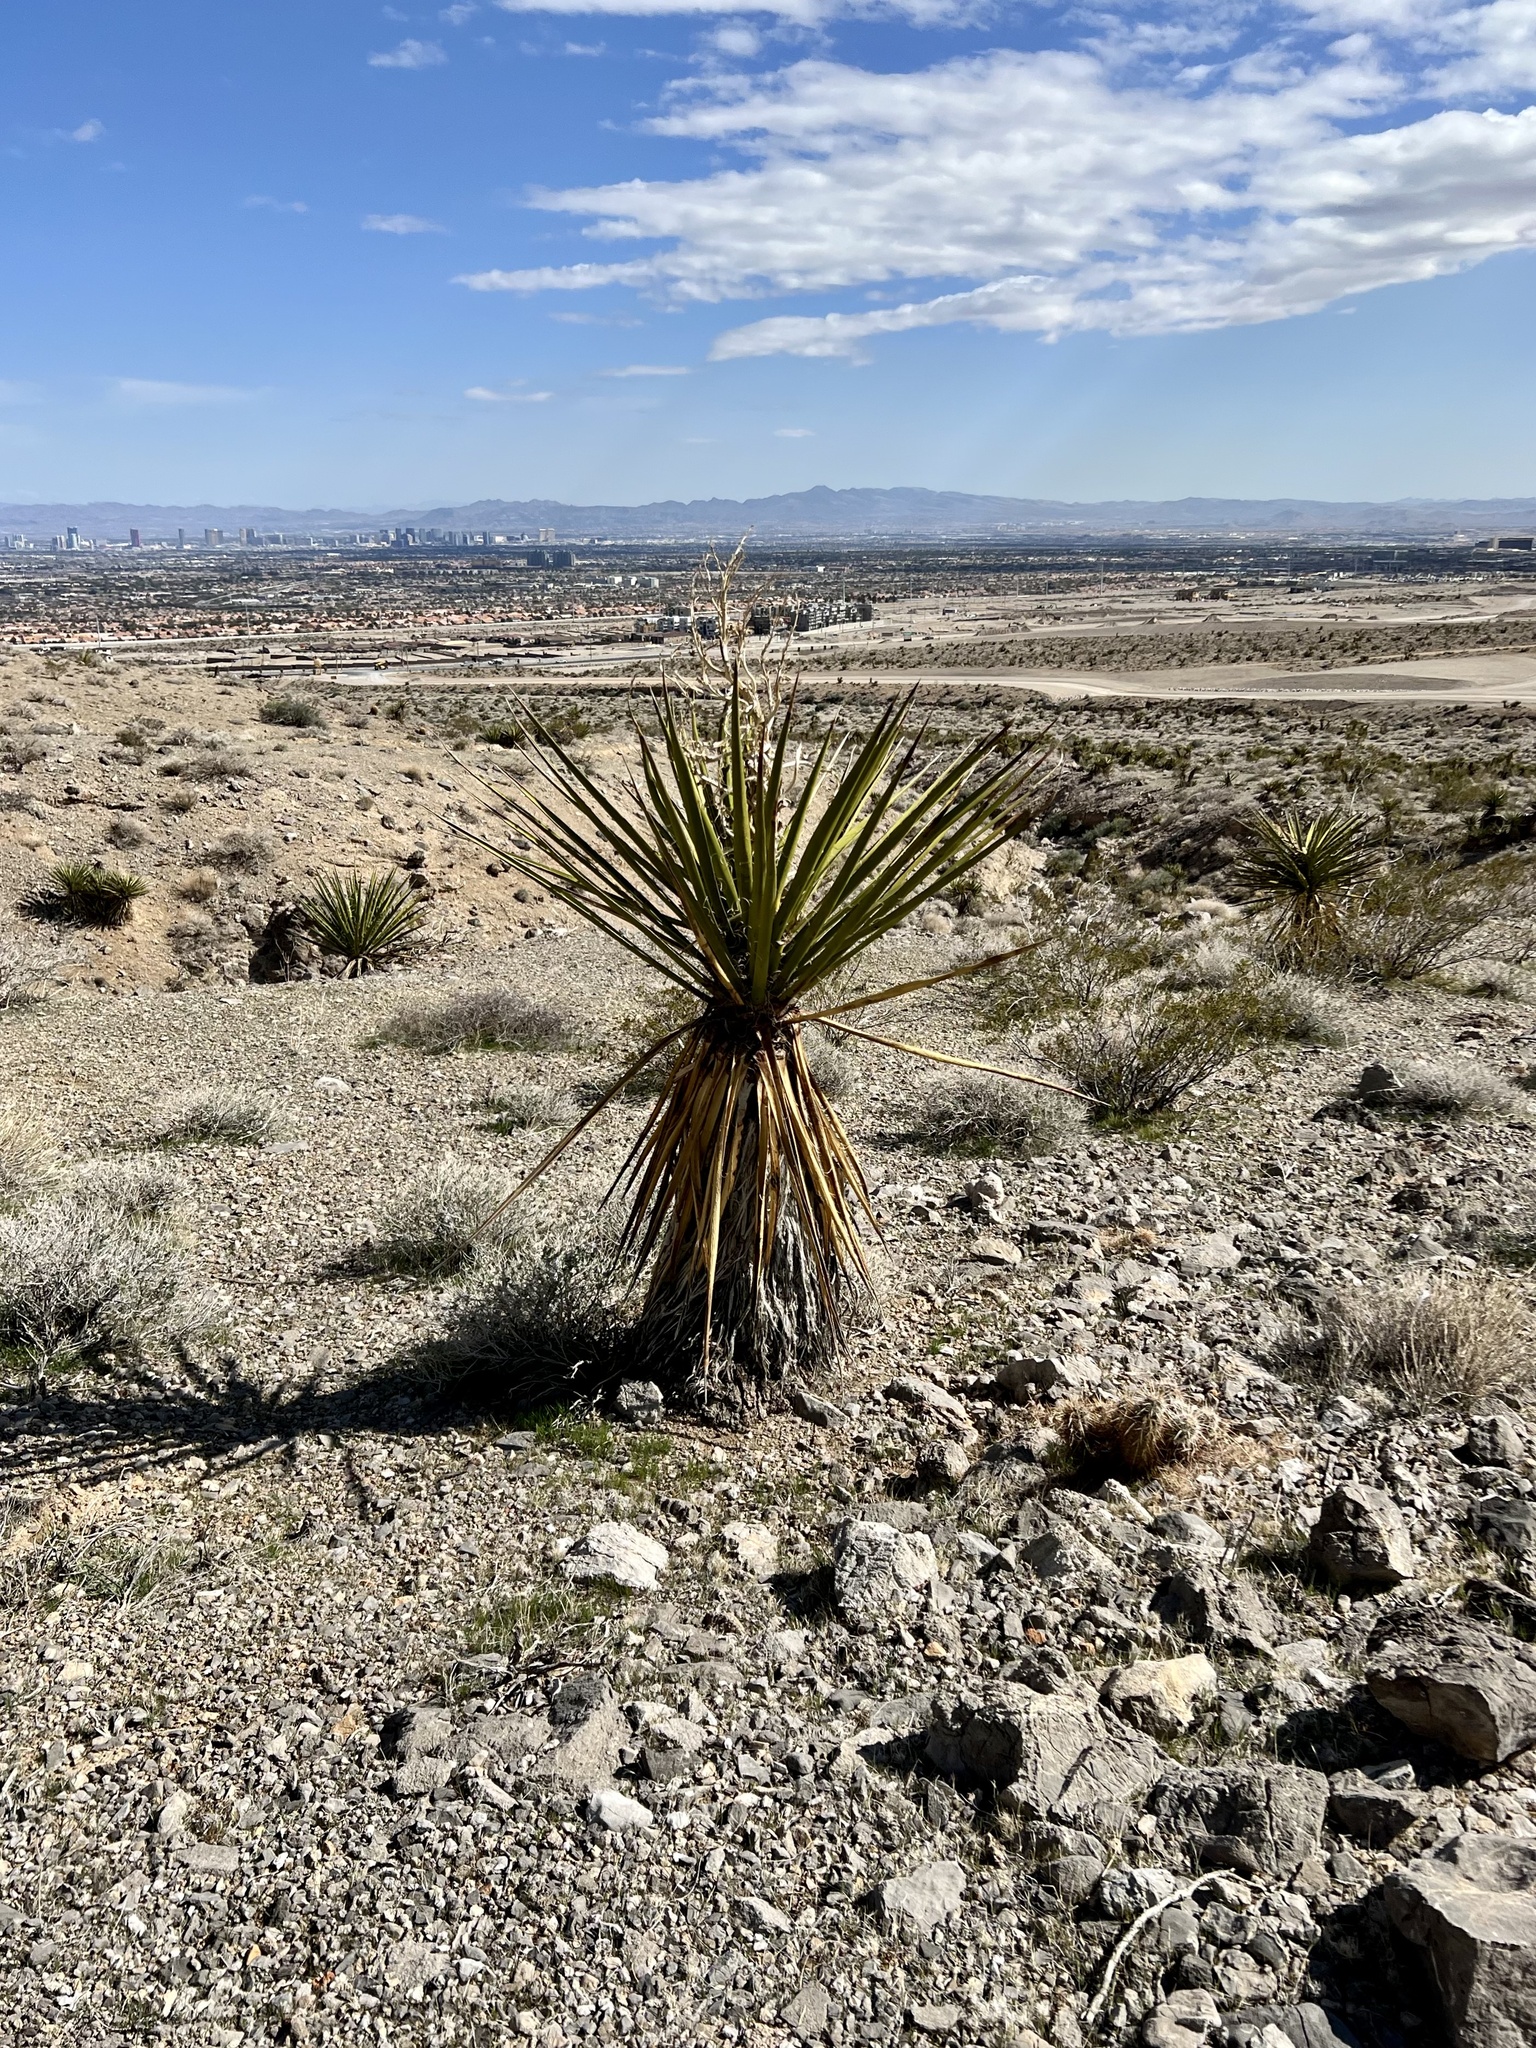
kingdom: Plantae
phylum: Tracheophyta
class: Liliopsida
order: Asparagales
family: Asparagaceae
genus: Yucca
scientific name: Yucca schidigera
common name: Mojave yucca
